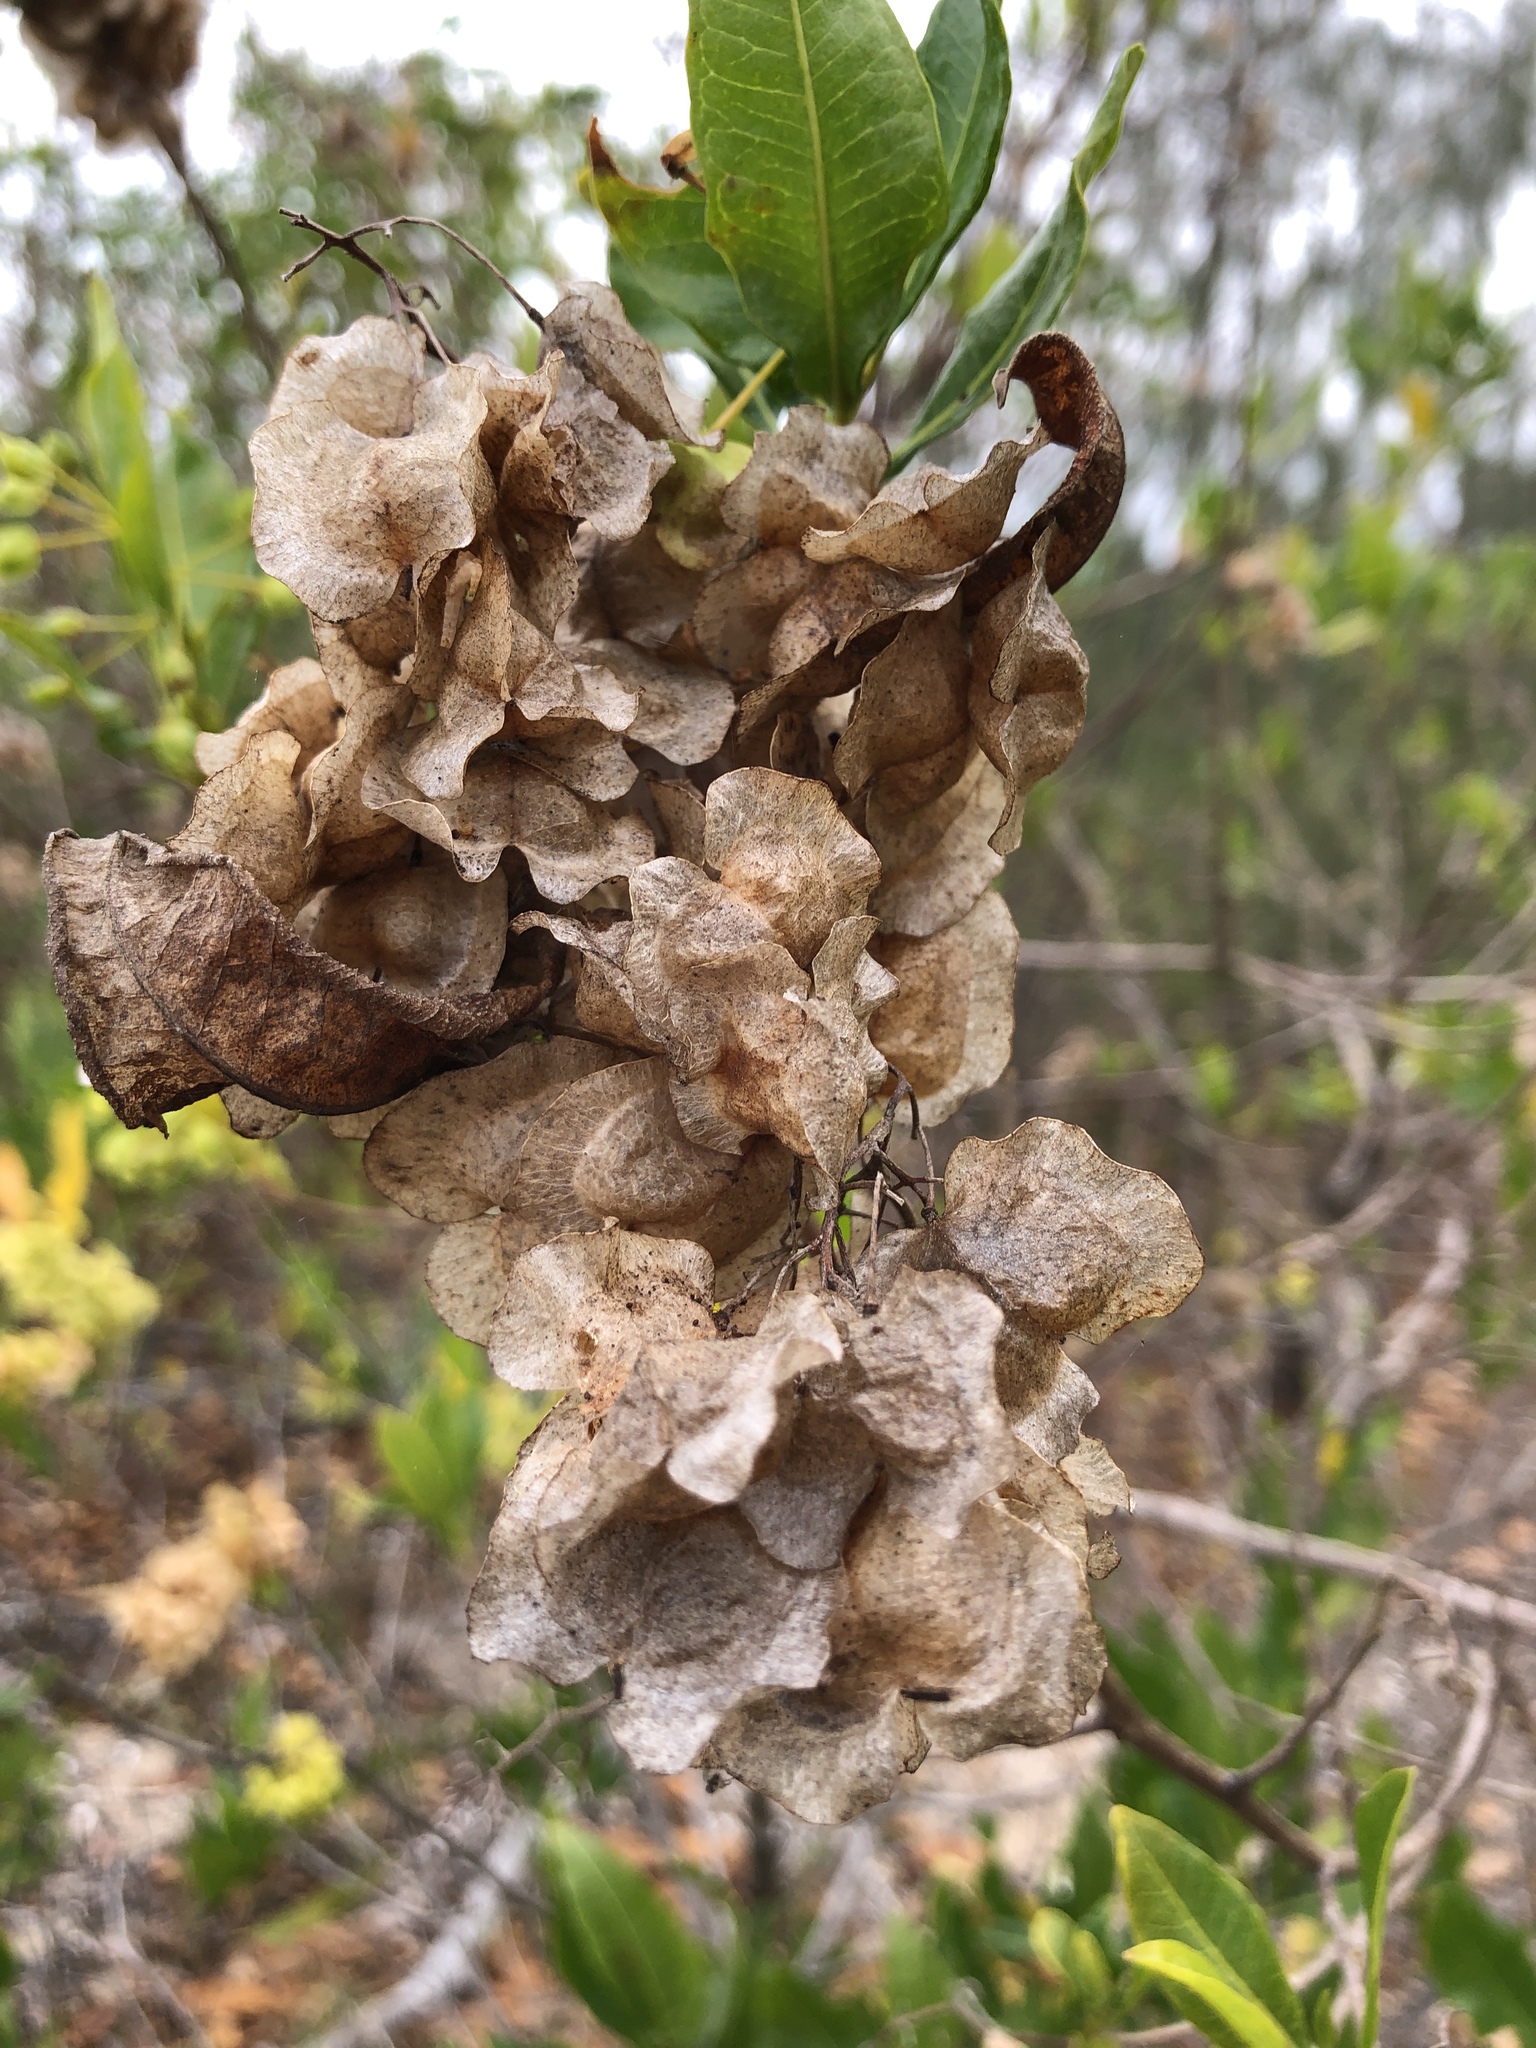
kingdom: Plantae
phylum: Tracheophyta
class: Magnoliopsida
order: Sapindales
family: Sapindaceae
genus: Dodonaea
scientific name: Dodonaea viscosa
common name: Hopbush
